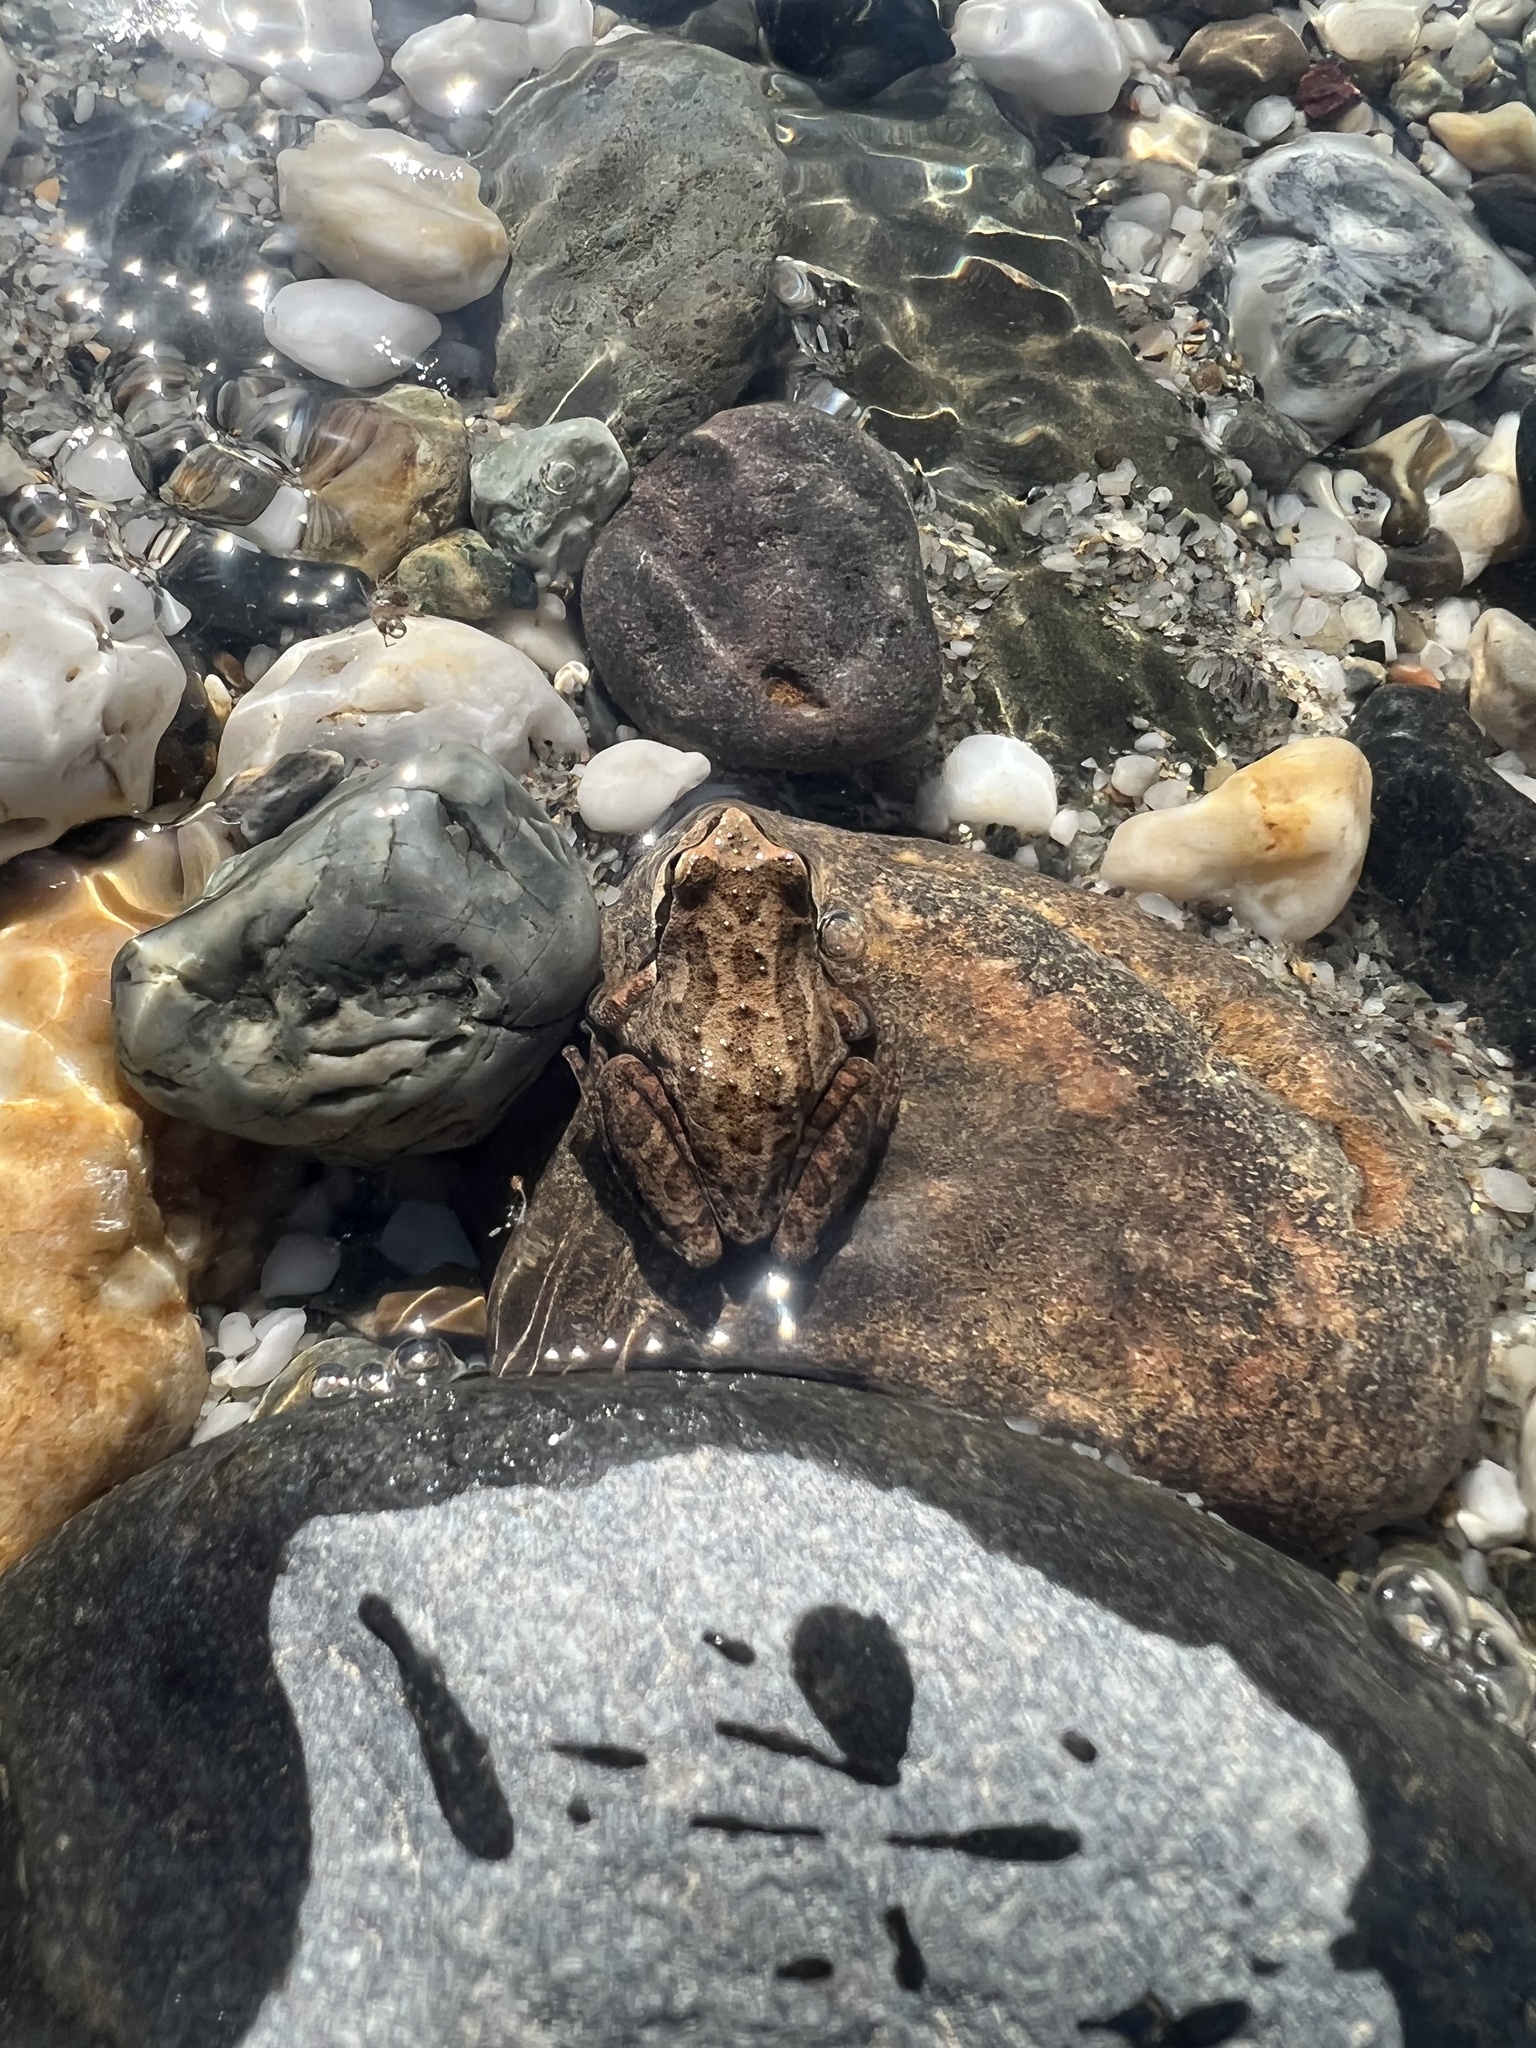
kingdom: Animalia
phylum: Chordata
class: Amphibia
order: Anura
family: Hylidae
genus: Pseudacris
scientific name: Pseudacris regilla
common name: Pacific chorus frog
